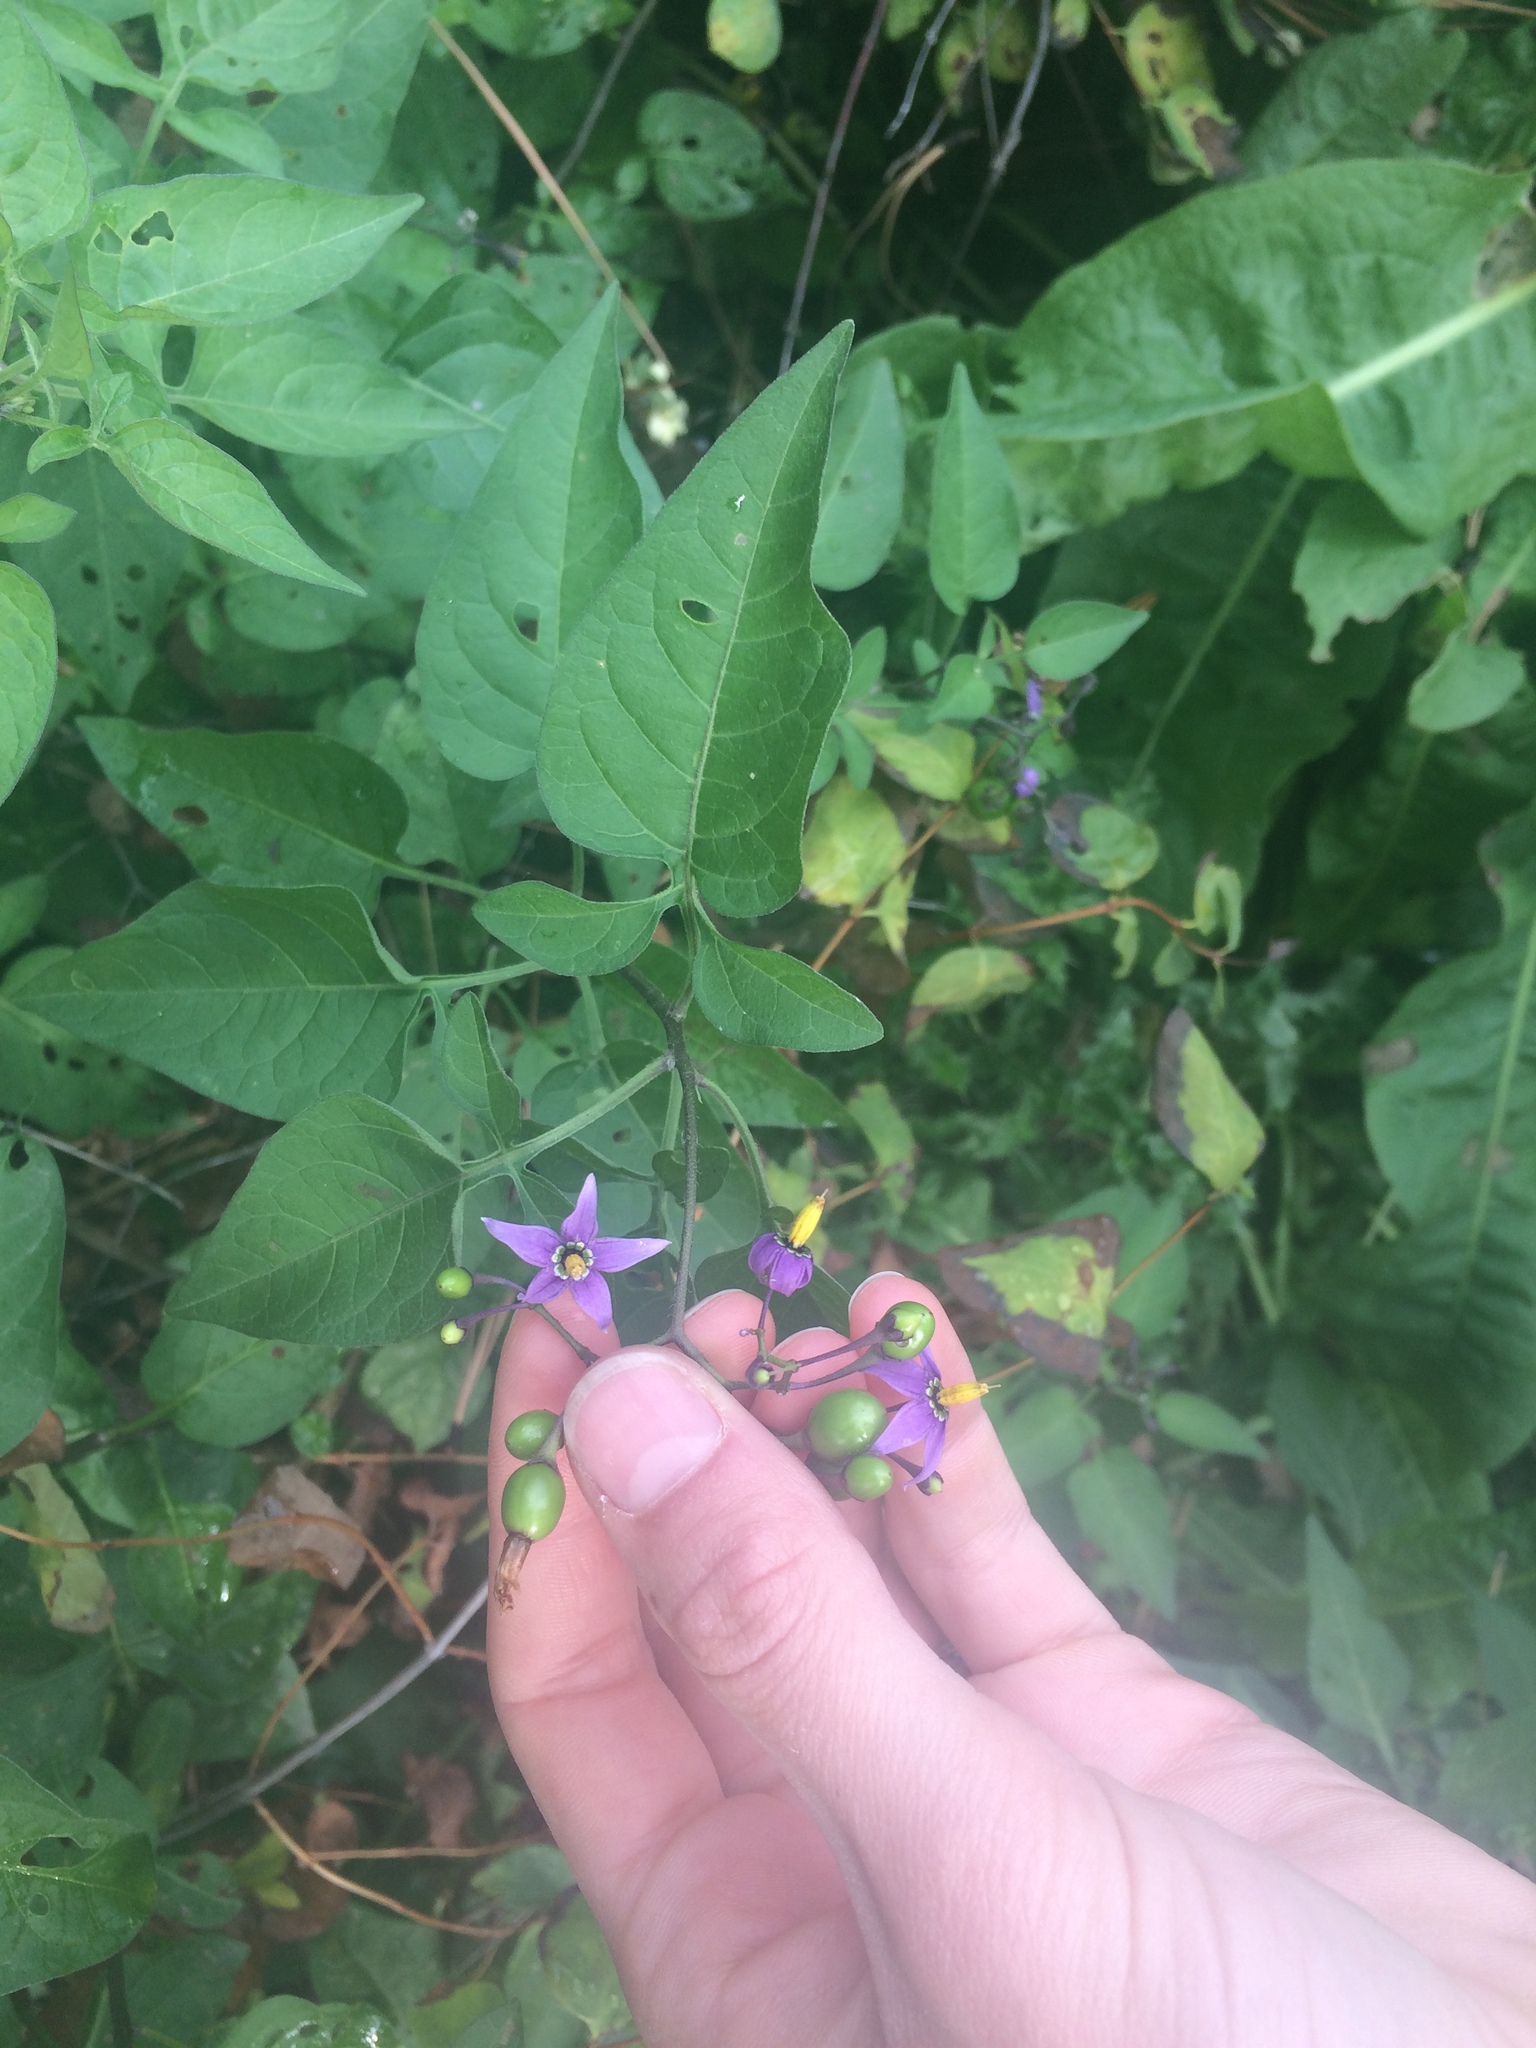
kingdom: Plantae
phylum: Tracheophyta
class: Magnoliopsida
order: Solanales
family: Solanaceae
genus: Solanum
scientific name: Solanum dulcamara
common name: Climbing nightshade
